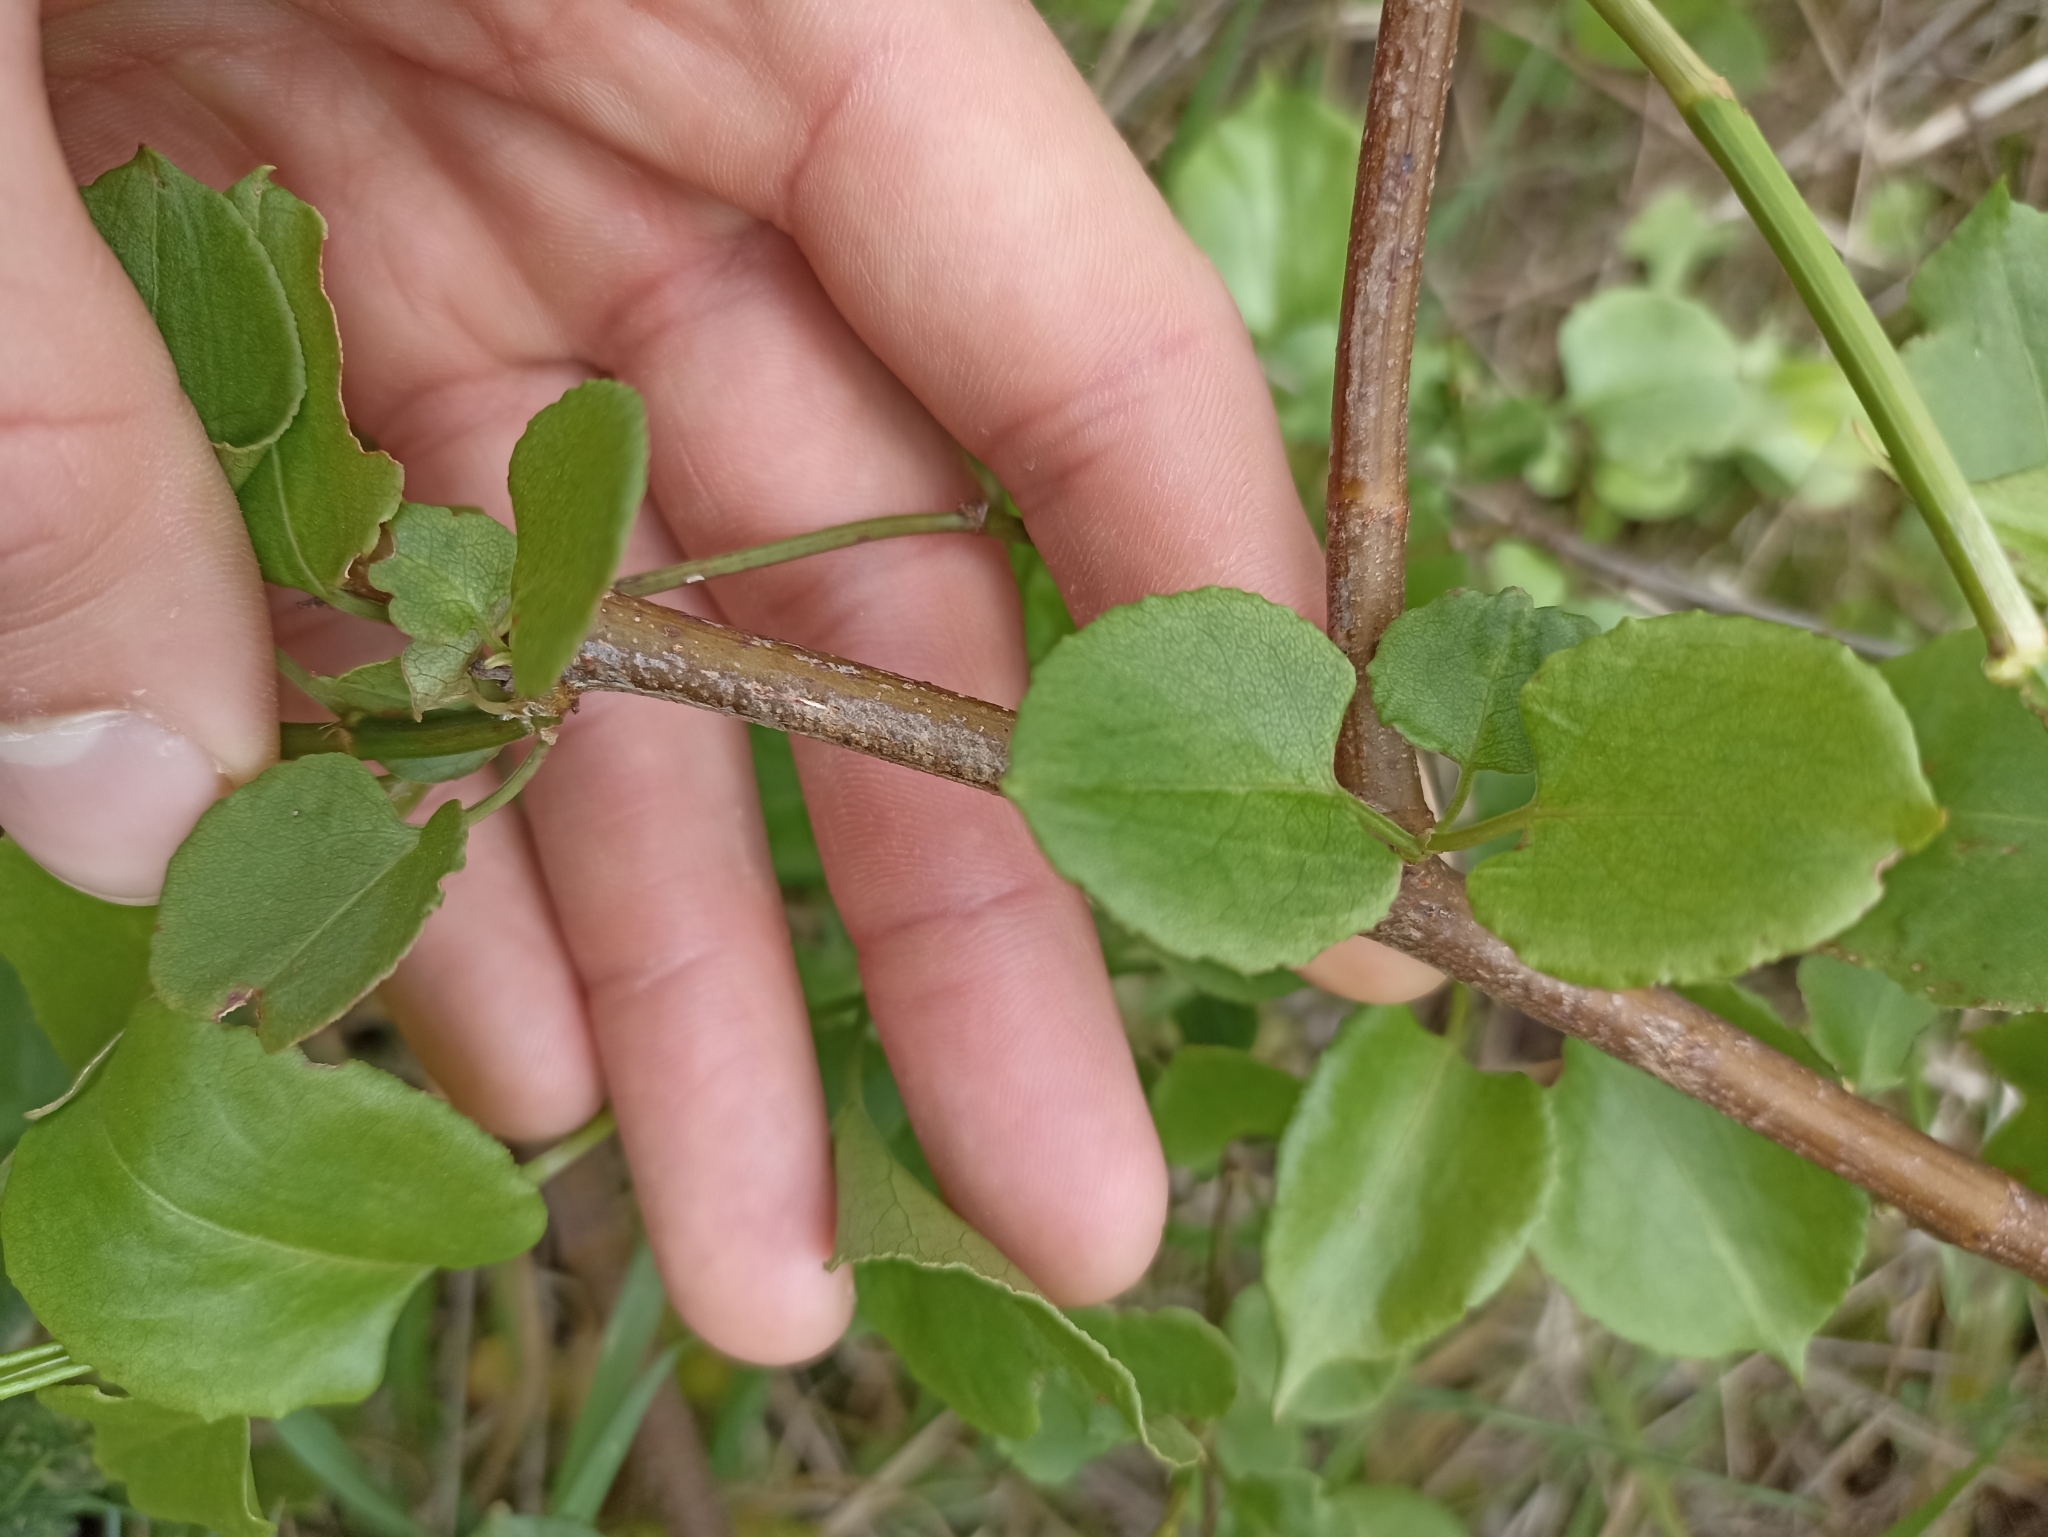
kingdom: Plantae
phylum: Tracheophyta
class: Magnoliopsida
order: Caryophyllales
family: Polygonaceae
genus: Muehlenbeckia
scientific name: Muehlenbeckia australis
